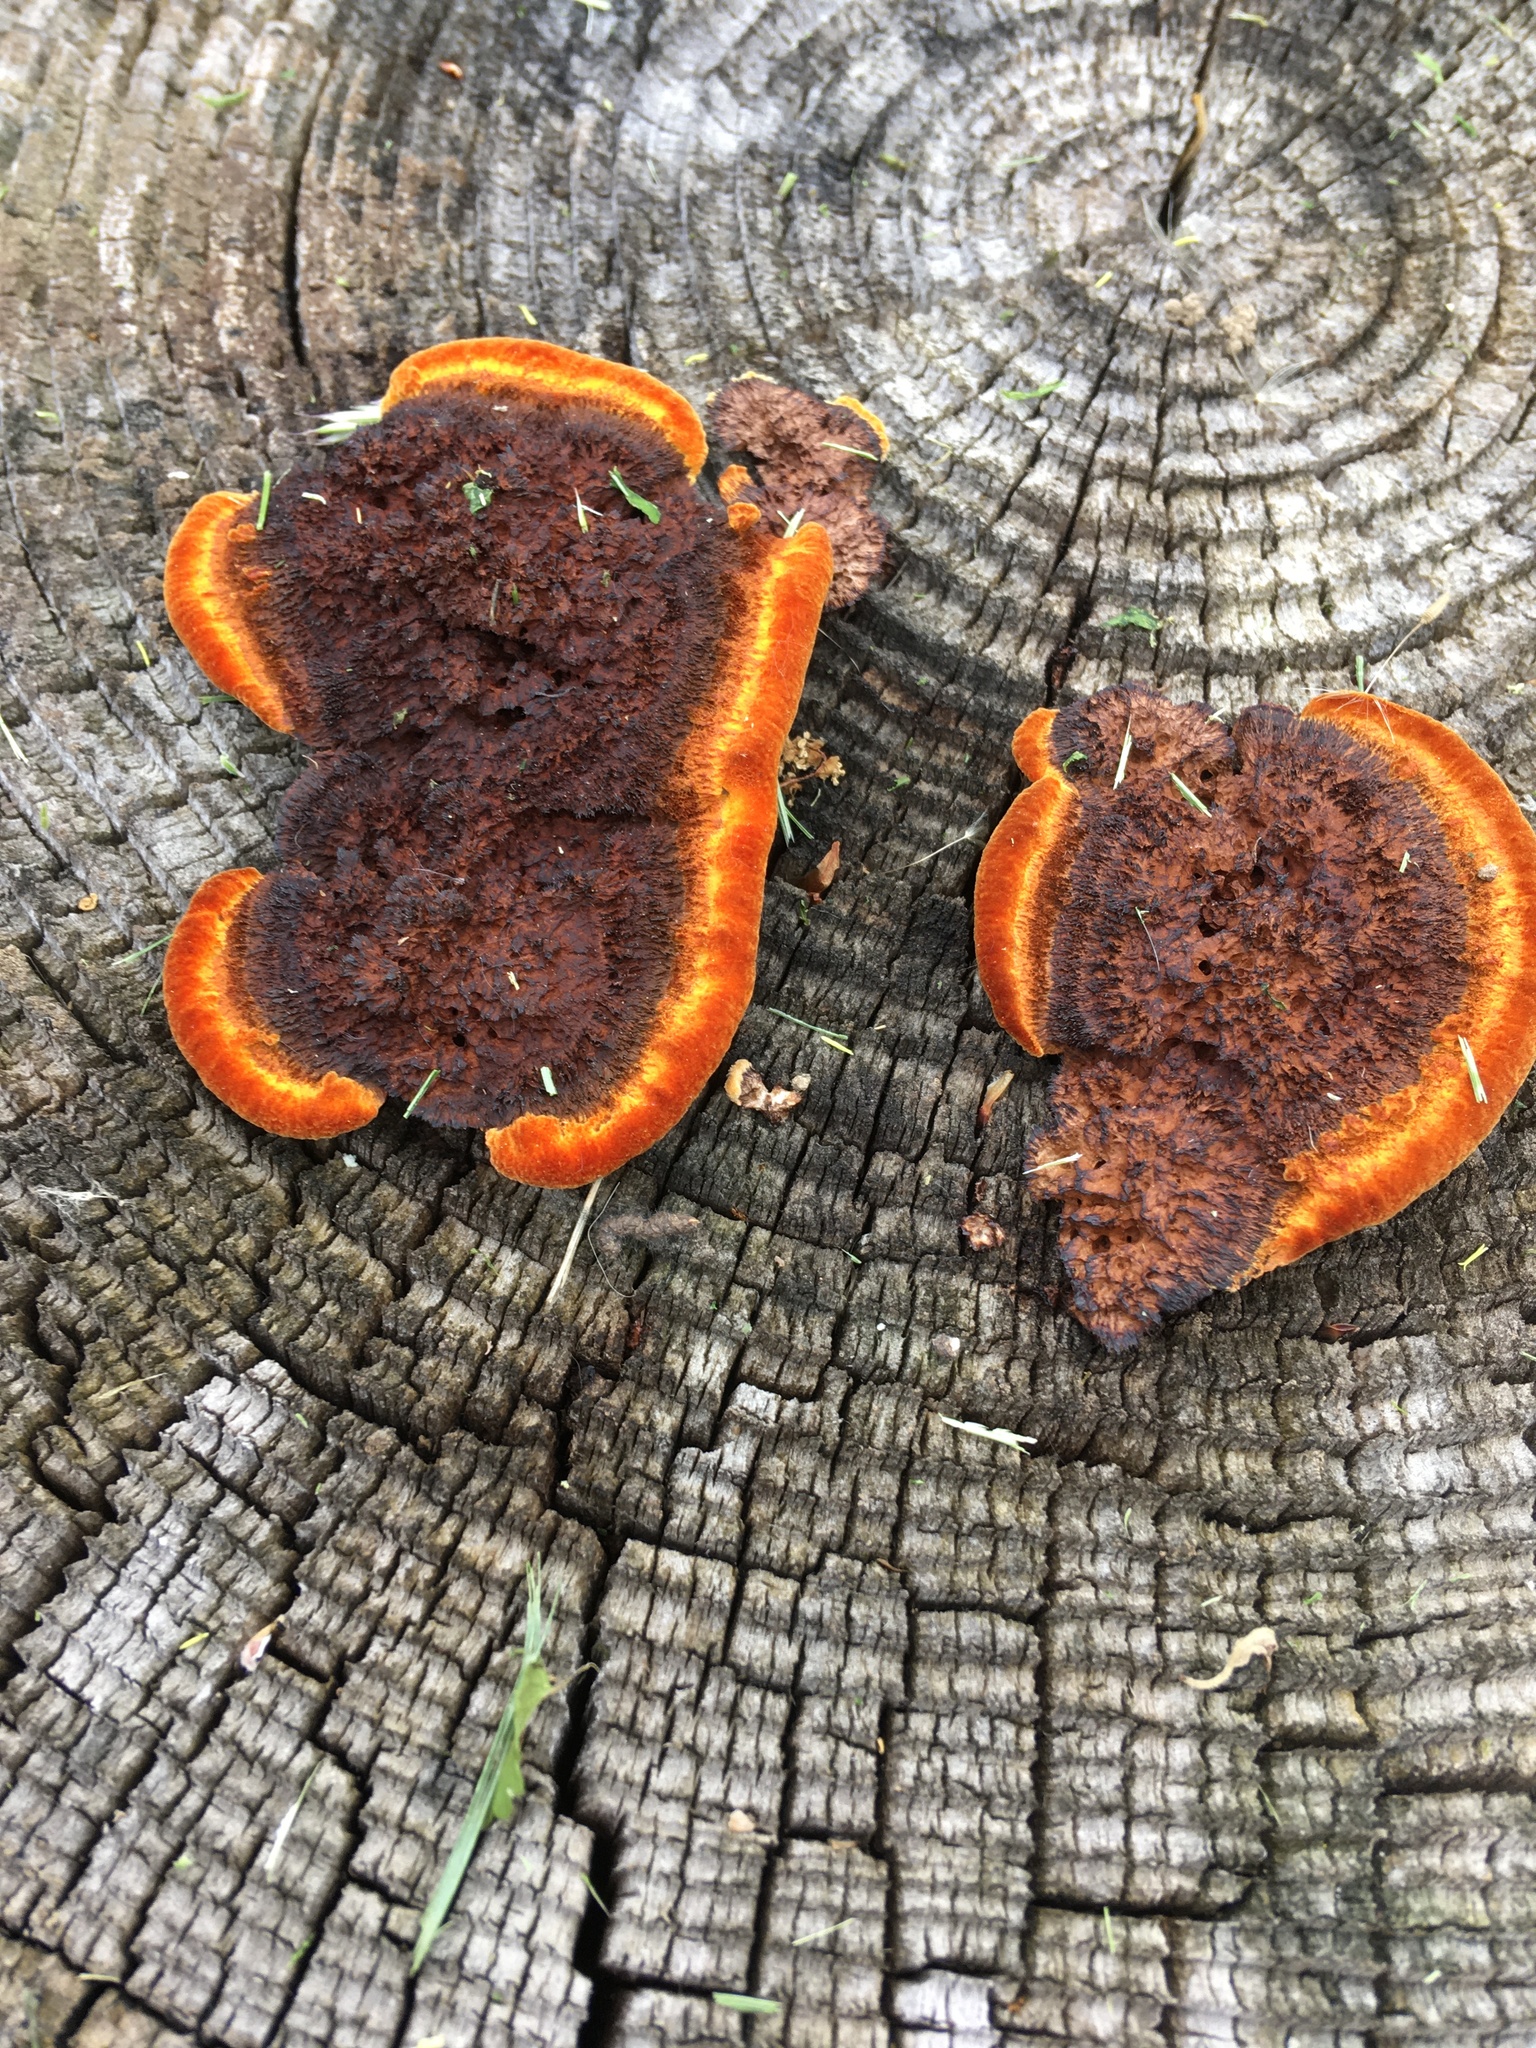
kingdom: Fungi
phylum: Basidiomycota
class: Agaricomycetes
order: Gloeophyllales
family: Gloeophyllaceae
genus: Gloeophyllum
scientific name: Gloeophyllum sepiarium
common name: Conifer mazegill
